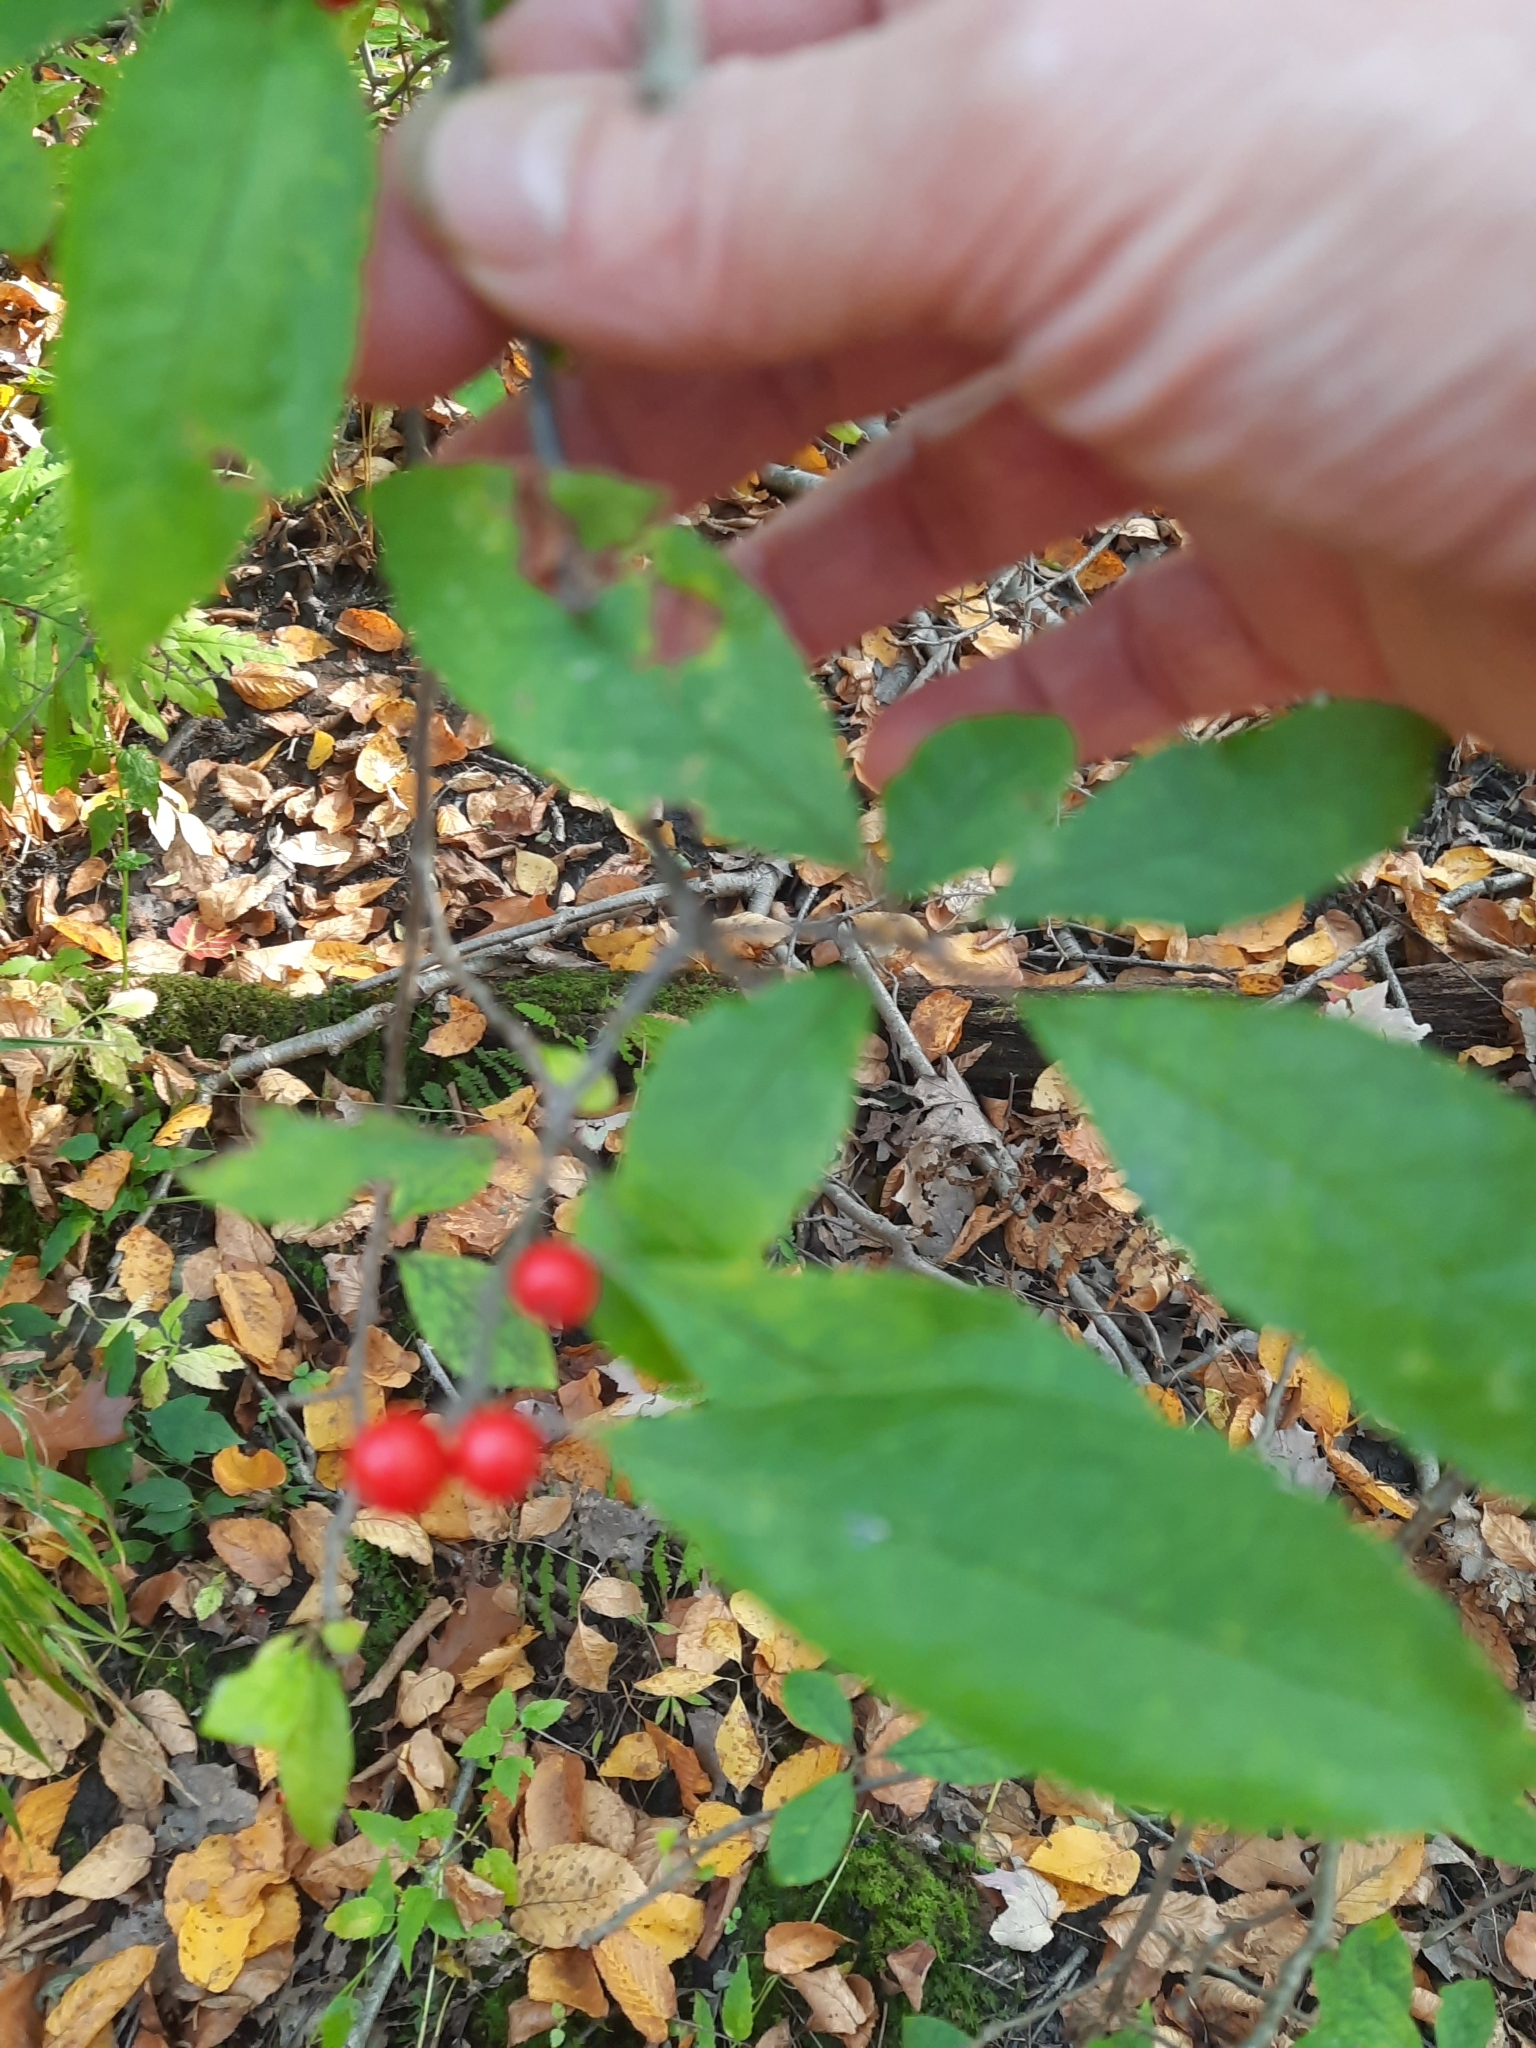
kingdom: Plantae
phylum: Tracheophyta
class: Magnoliopsida
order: Aquifoliales
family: Aquifoliaceae
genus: Ilex
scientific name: Ilex verticillata
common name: Virginia winterberry
